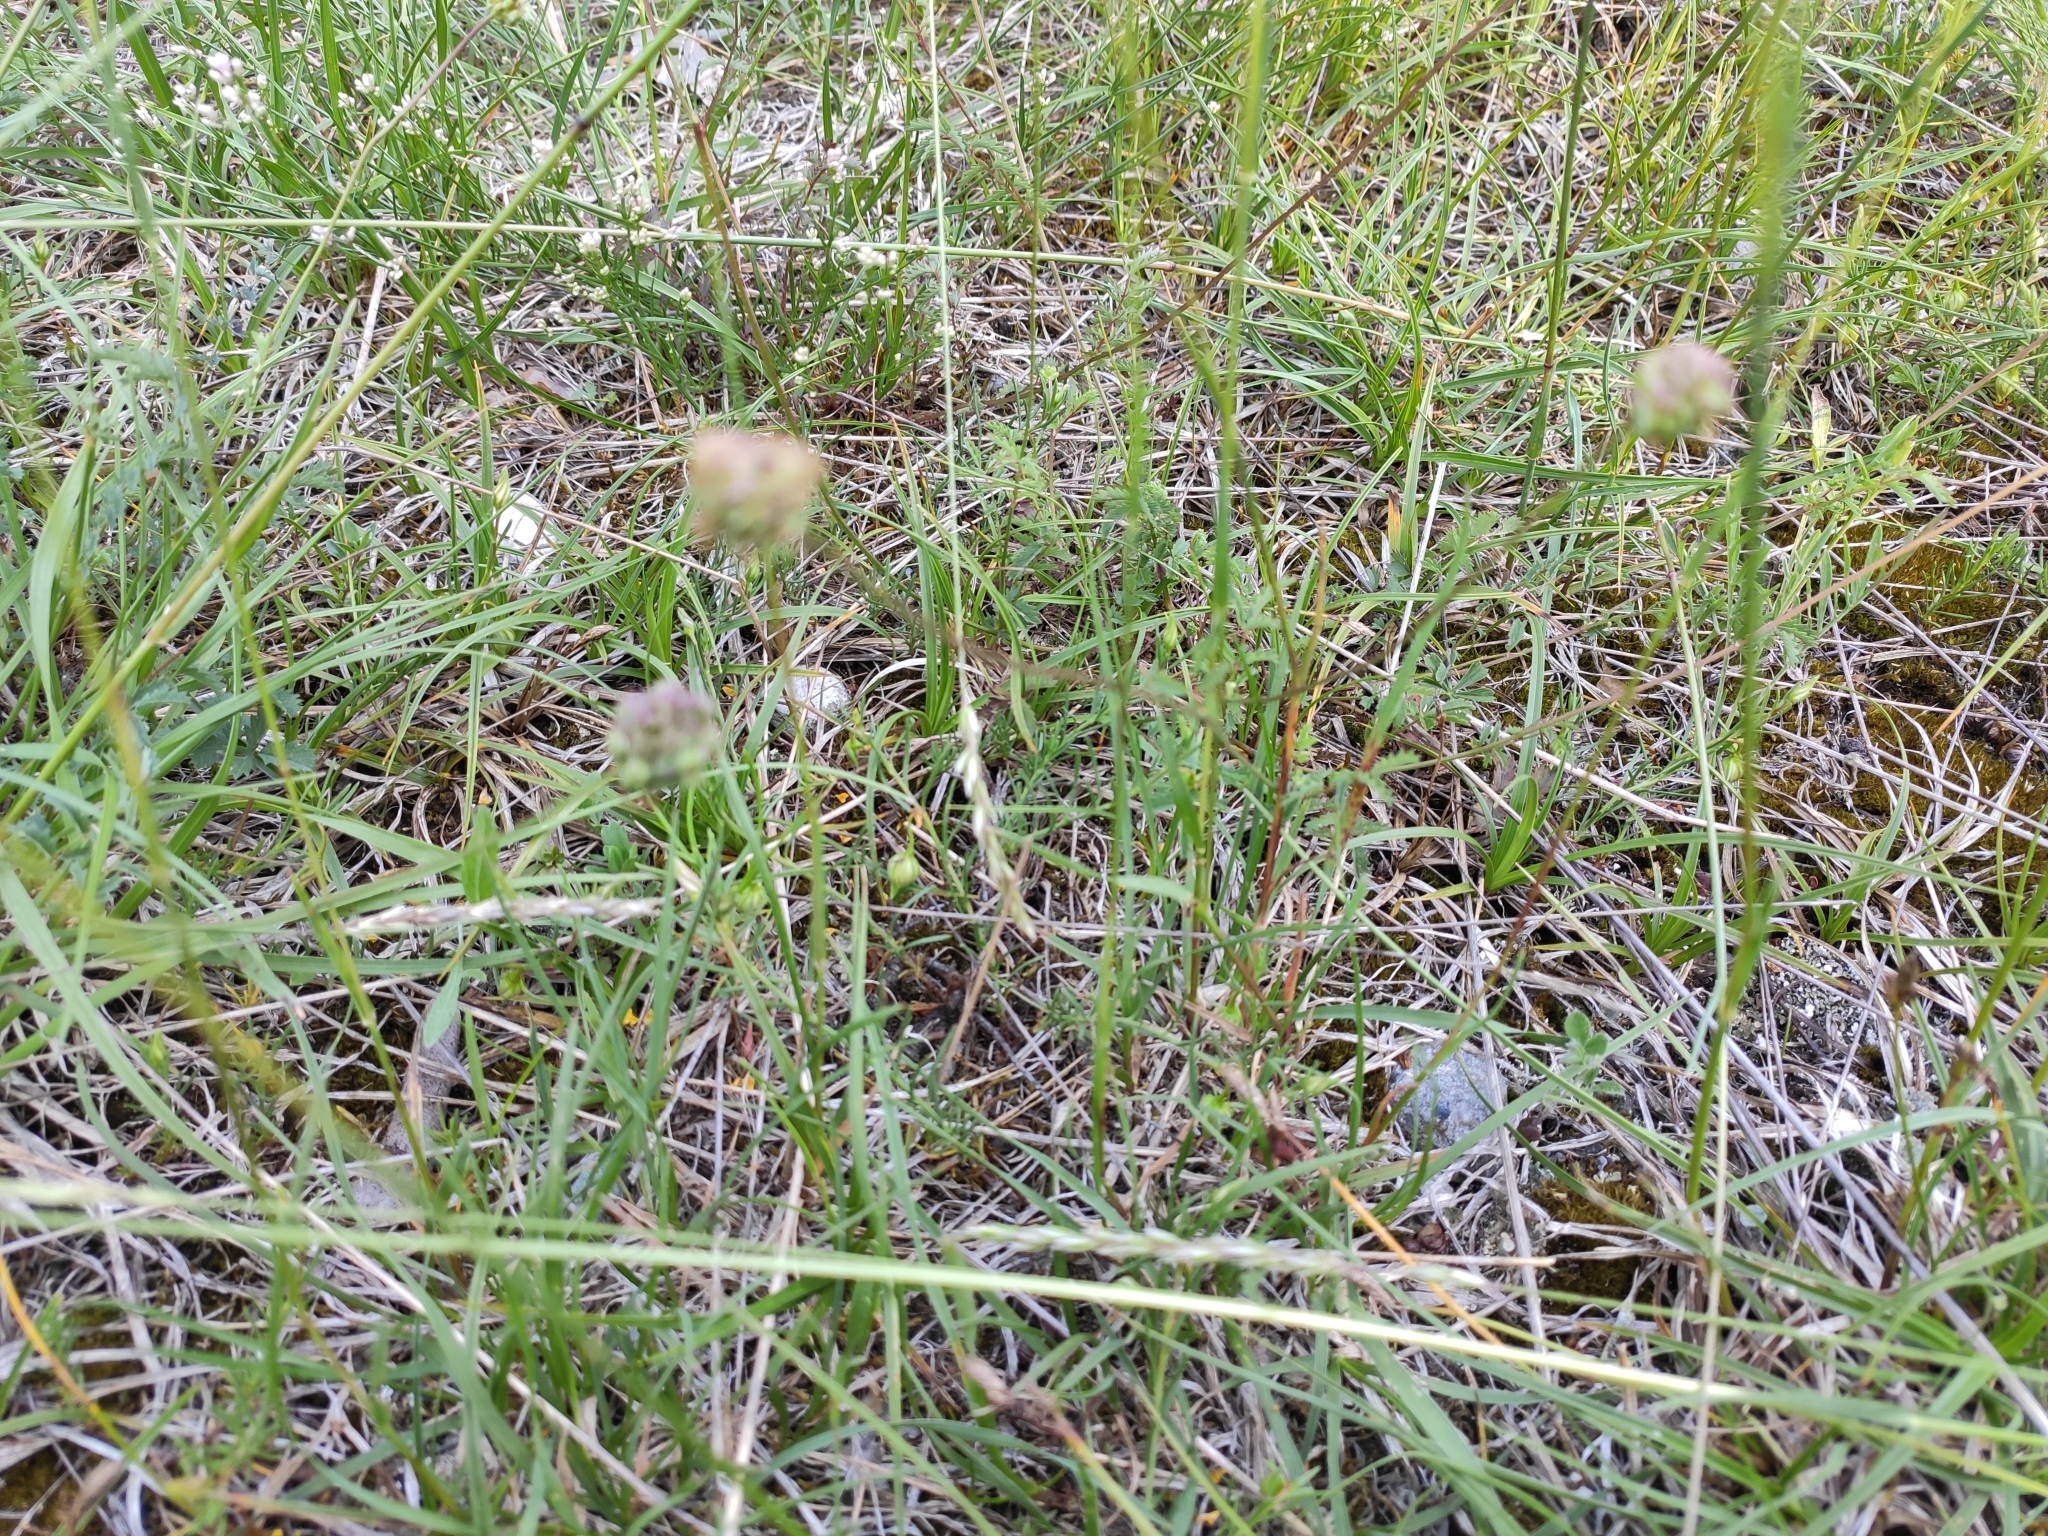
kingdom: Plantae
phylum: Tracheophyta
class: Magnoliopsida
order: Rosales
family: Rosaceae
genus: Poterium
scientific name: Poterium sanguisorba
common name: Salad burnet
